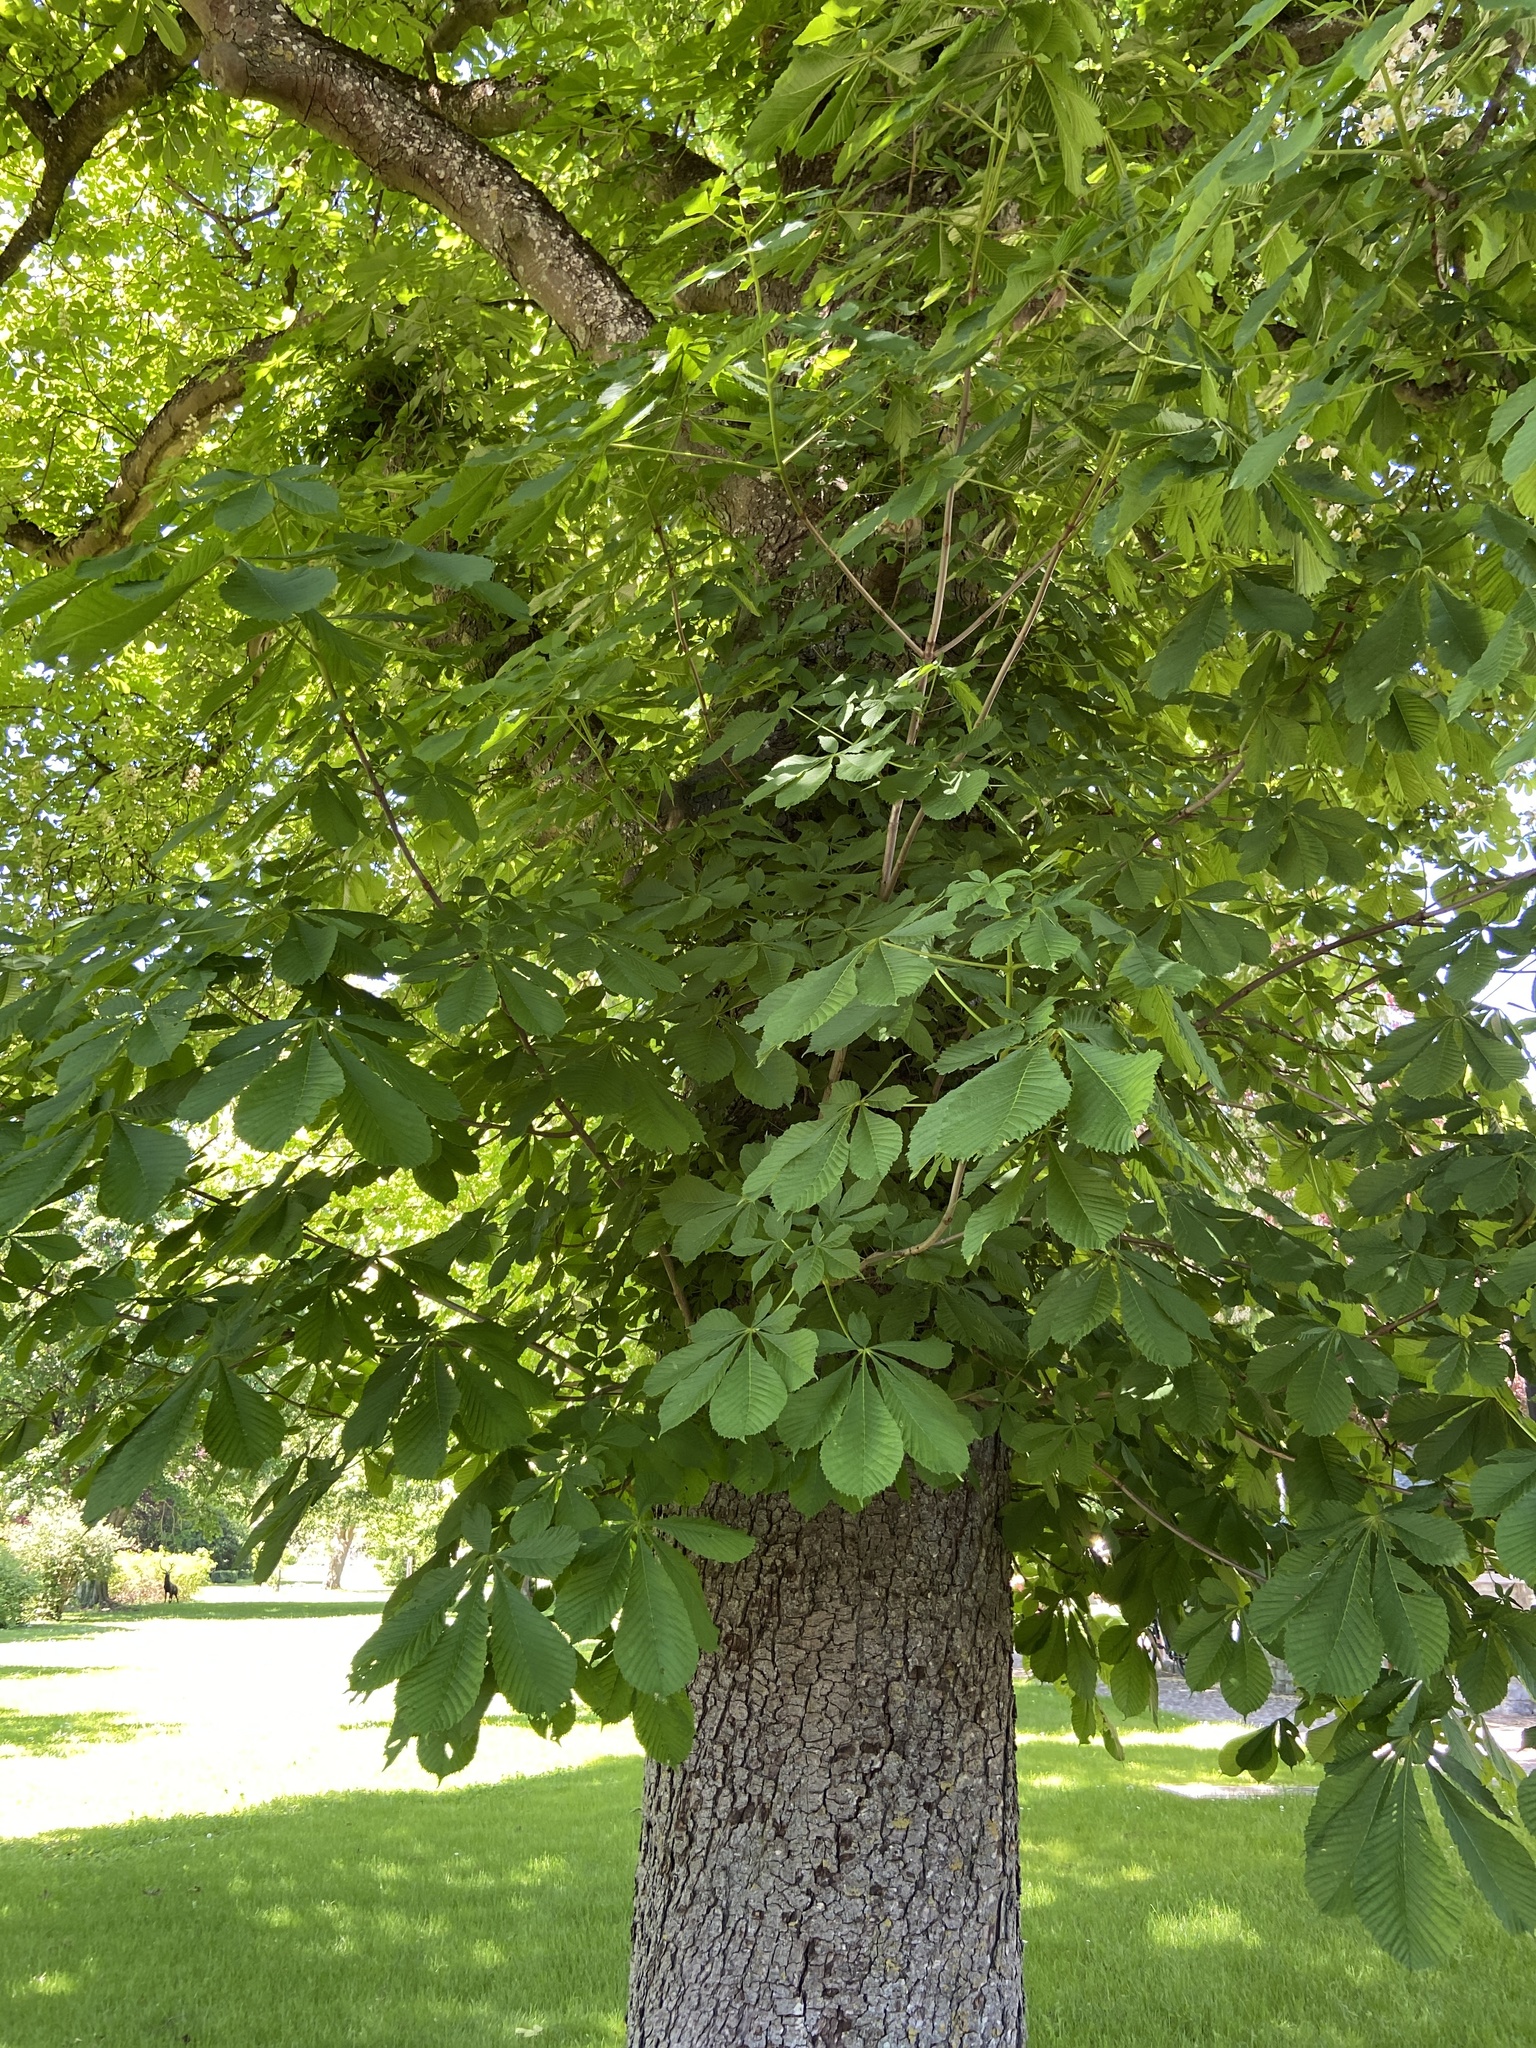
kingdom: Plantae
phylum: Tracheophyta
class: Magnoliopsida
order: Sapindales
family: Sapindaceae
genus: Aesculus
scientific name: Aesculus hippocastanum
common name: Horse-chestnut
